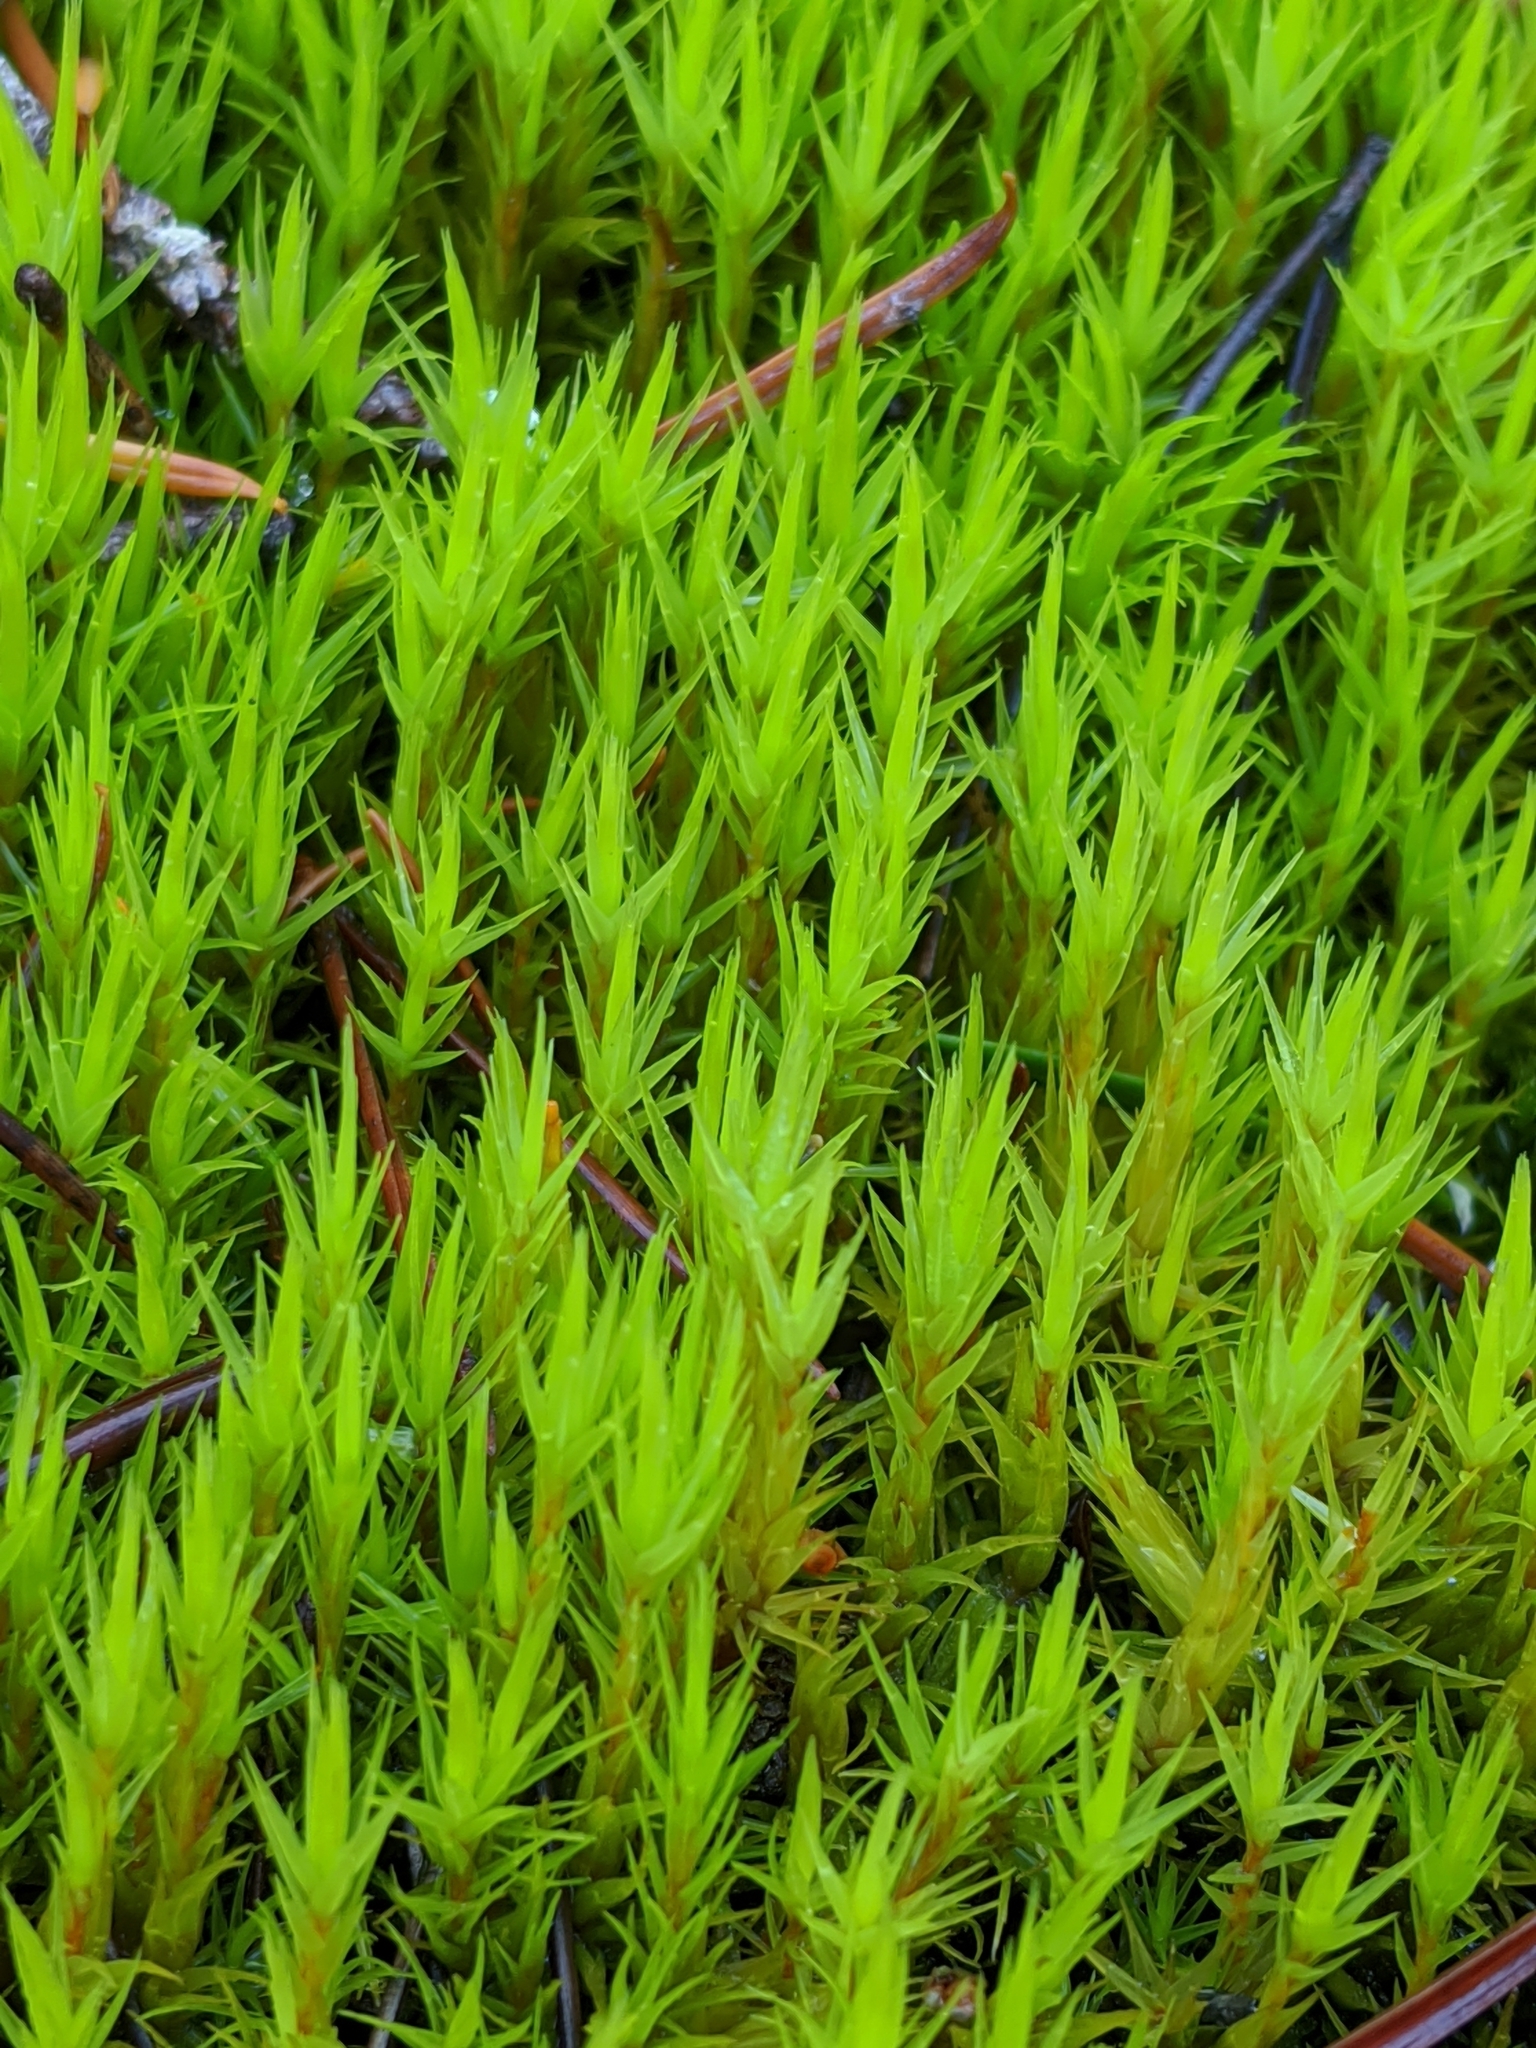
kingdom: Plantae
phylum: Bryophyta
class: Bryopsida
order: Dicranales
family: Dicranaceae
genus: Dicranum
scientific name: Dicranum scoparium
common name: Broom fork-moss
